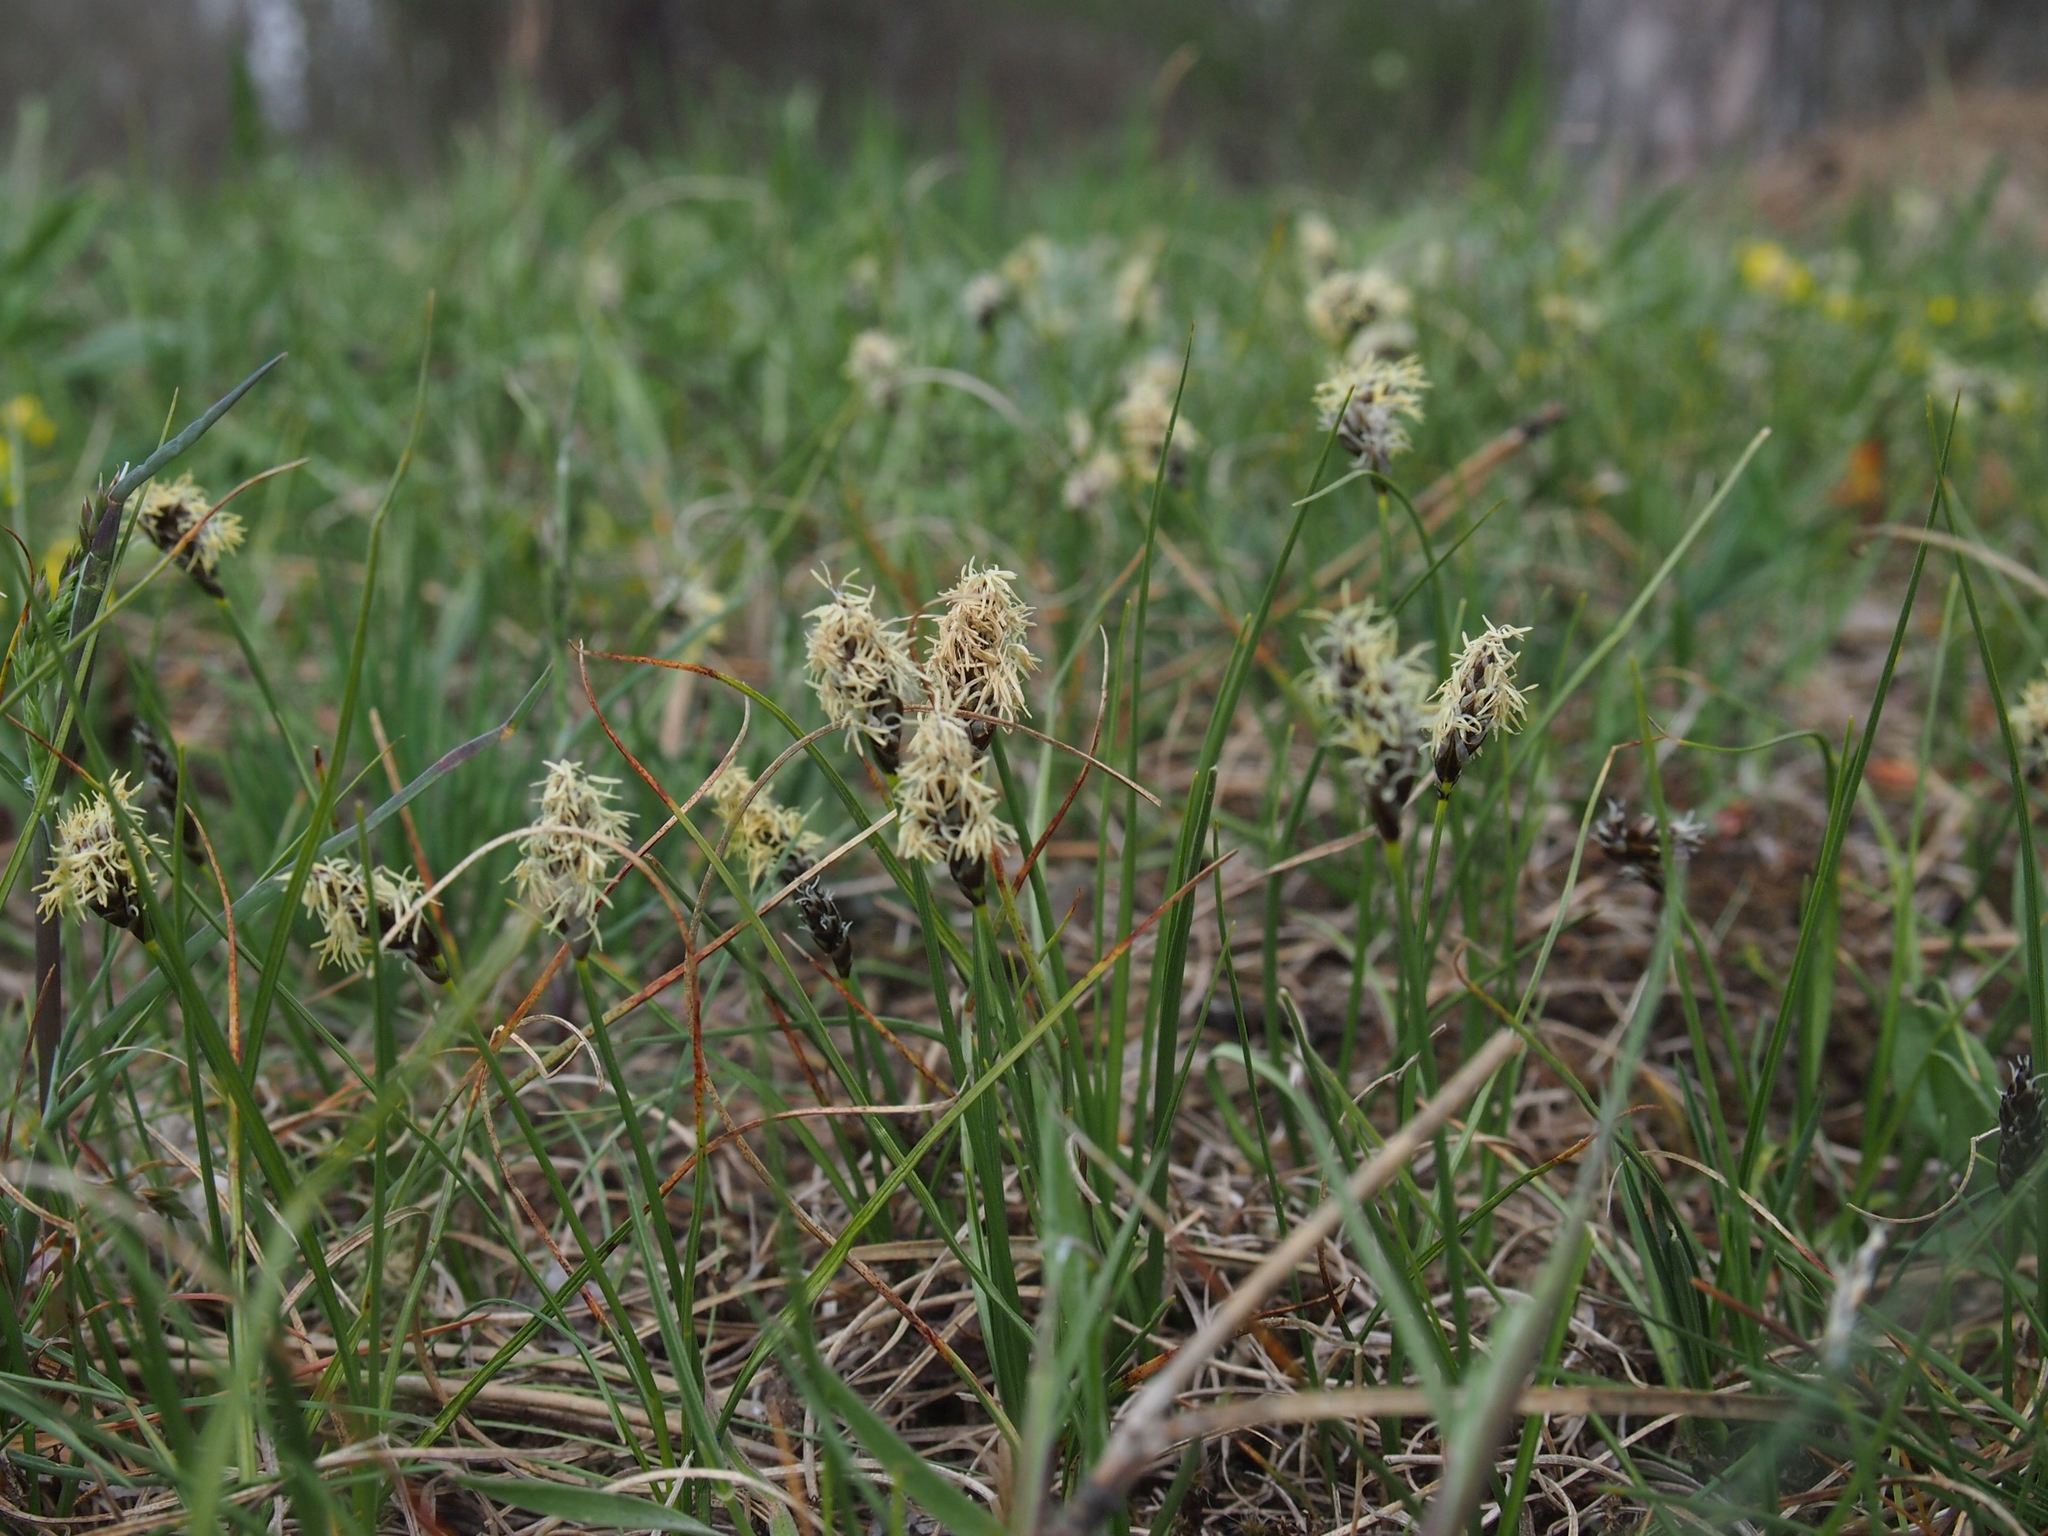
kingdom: Plantae
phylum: Tracheophyta
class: Liliopsida
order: Poales
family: Cyperaceae
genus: Carex
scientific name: Carex humilis
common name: Dwarf sedge
